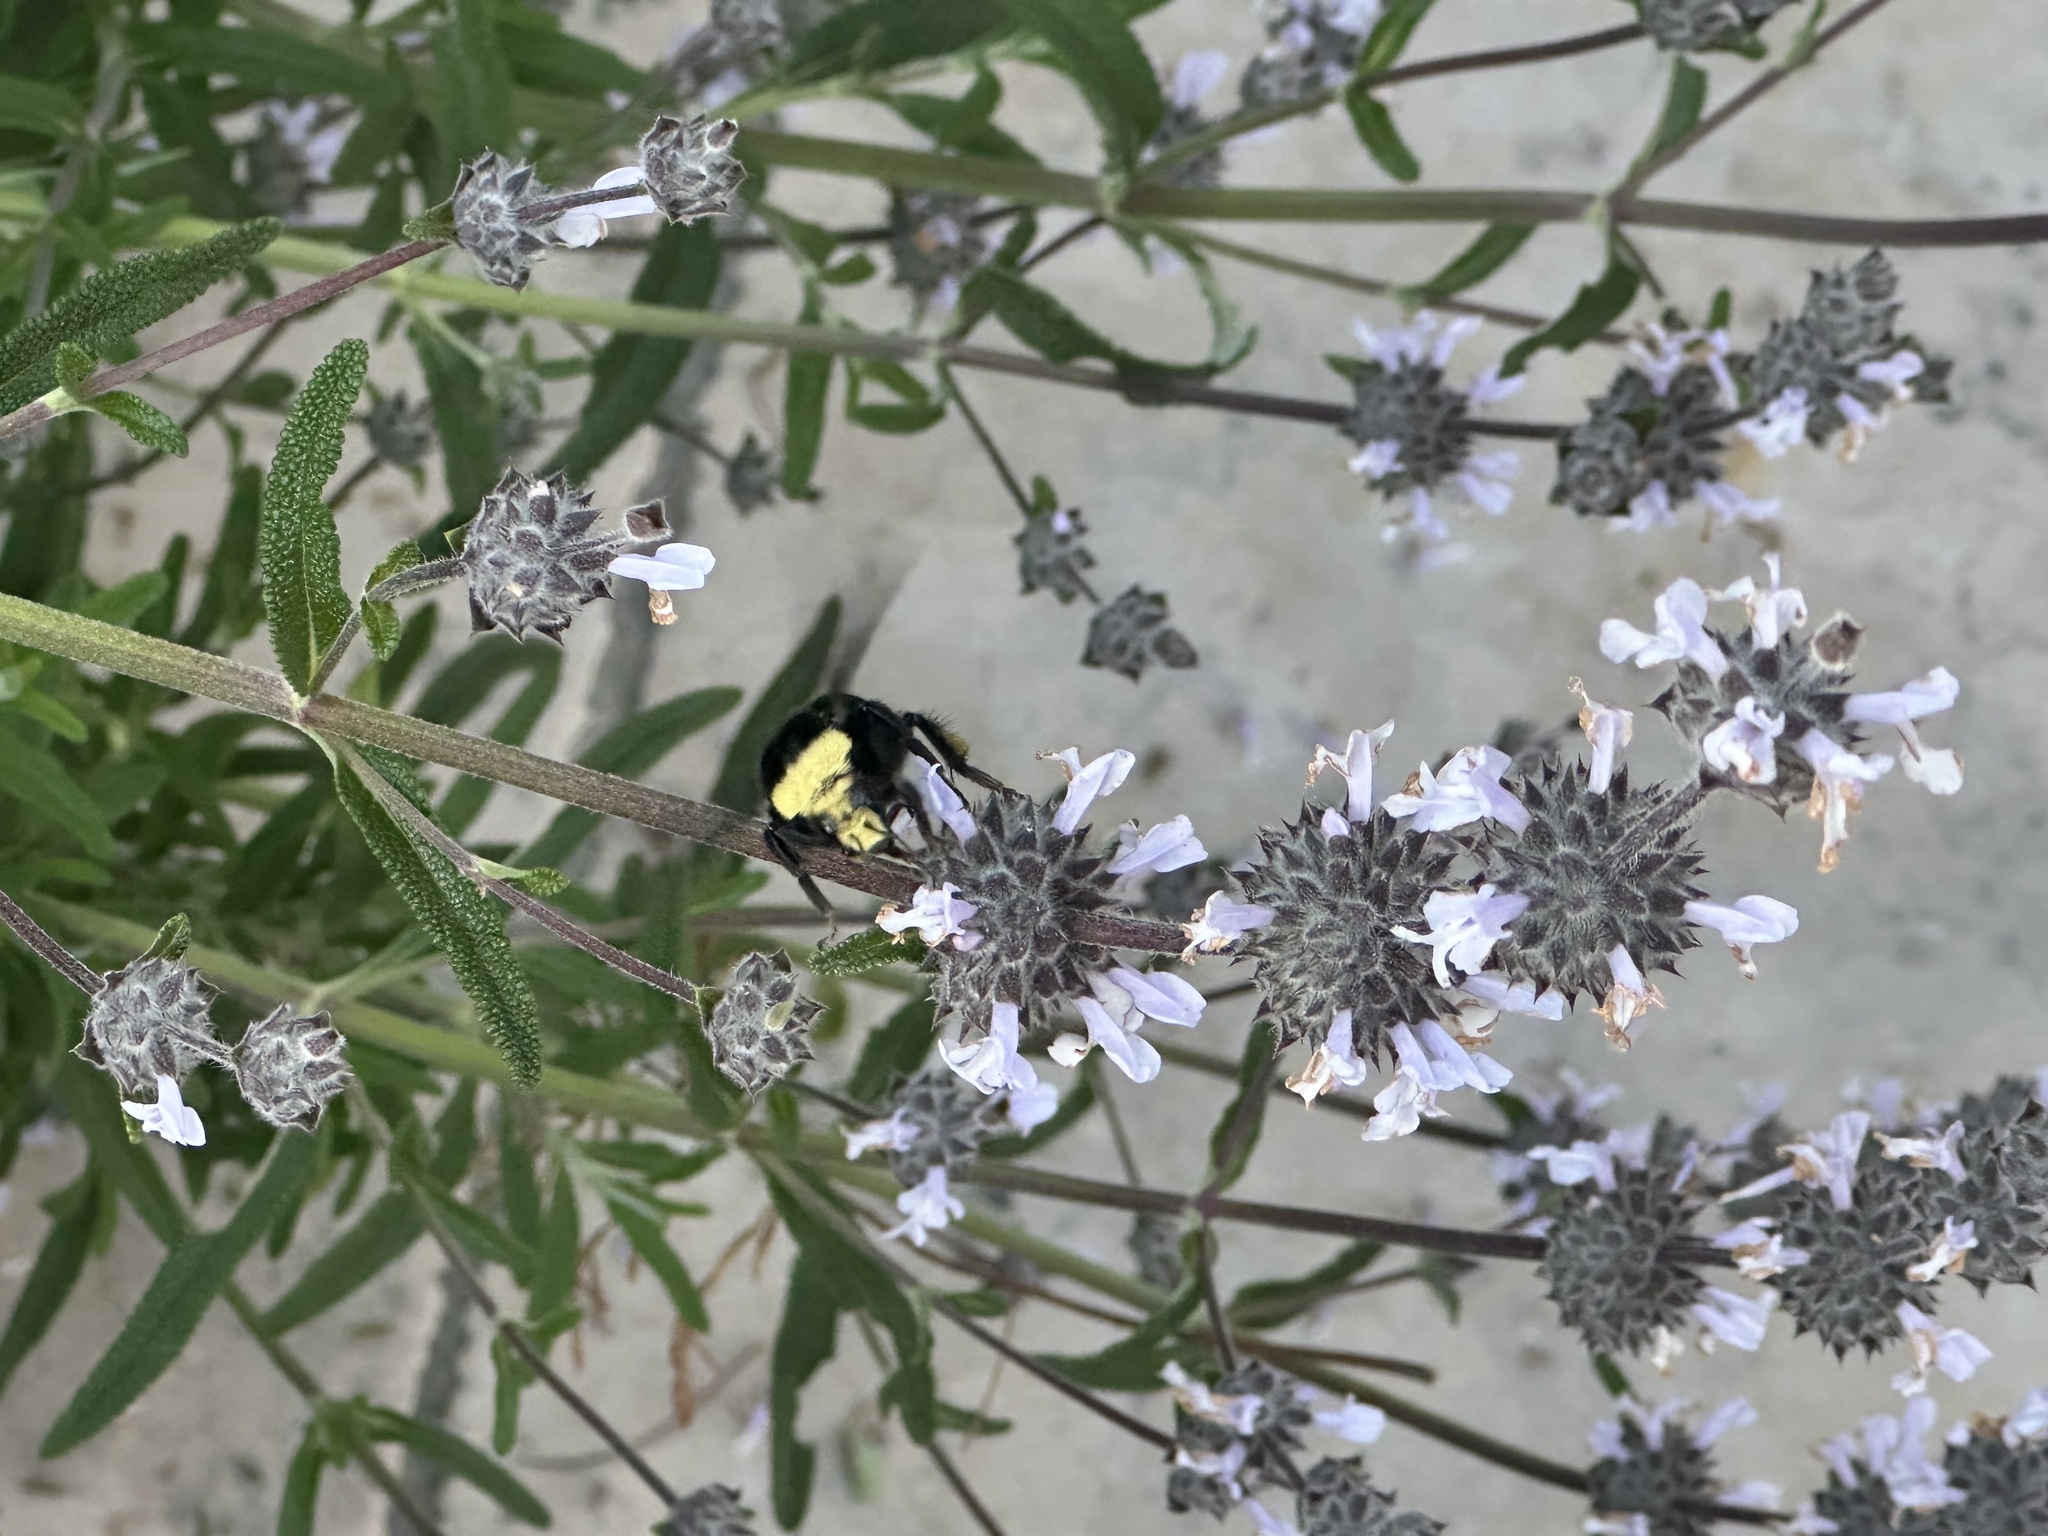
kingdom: Animalia
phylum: Arthropoda
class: Insecta
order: Hymenoptera
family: Apidae
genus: Bombus
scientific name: Bombus vosnesenskii
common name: Vosnesensky bumble bee
